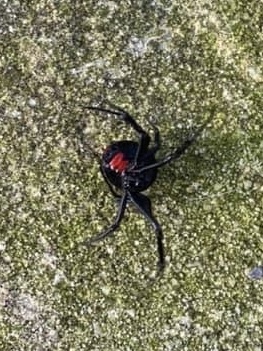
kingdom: Animalia
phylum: Arthropoda
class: Arachnida
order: Araneae
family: Theridiidae
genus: Latrodectus
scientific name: Latrodectus mactans
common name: Cobweb spiders
